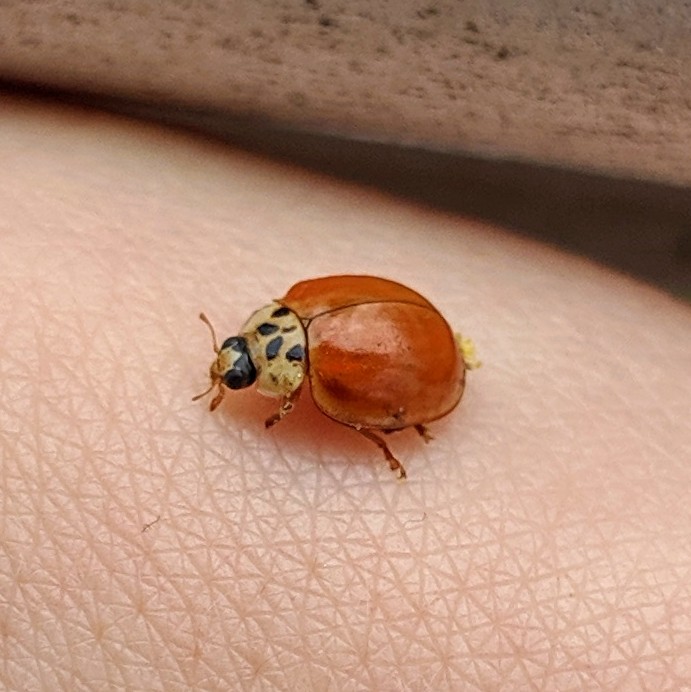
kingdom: Animalia
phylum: Arthropoda
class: Insecta
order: Coleoptera
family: Coccinellidae
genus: Harmonia
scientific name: Harmonia axyridis
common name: Harlequin ladybird
